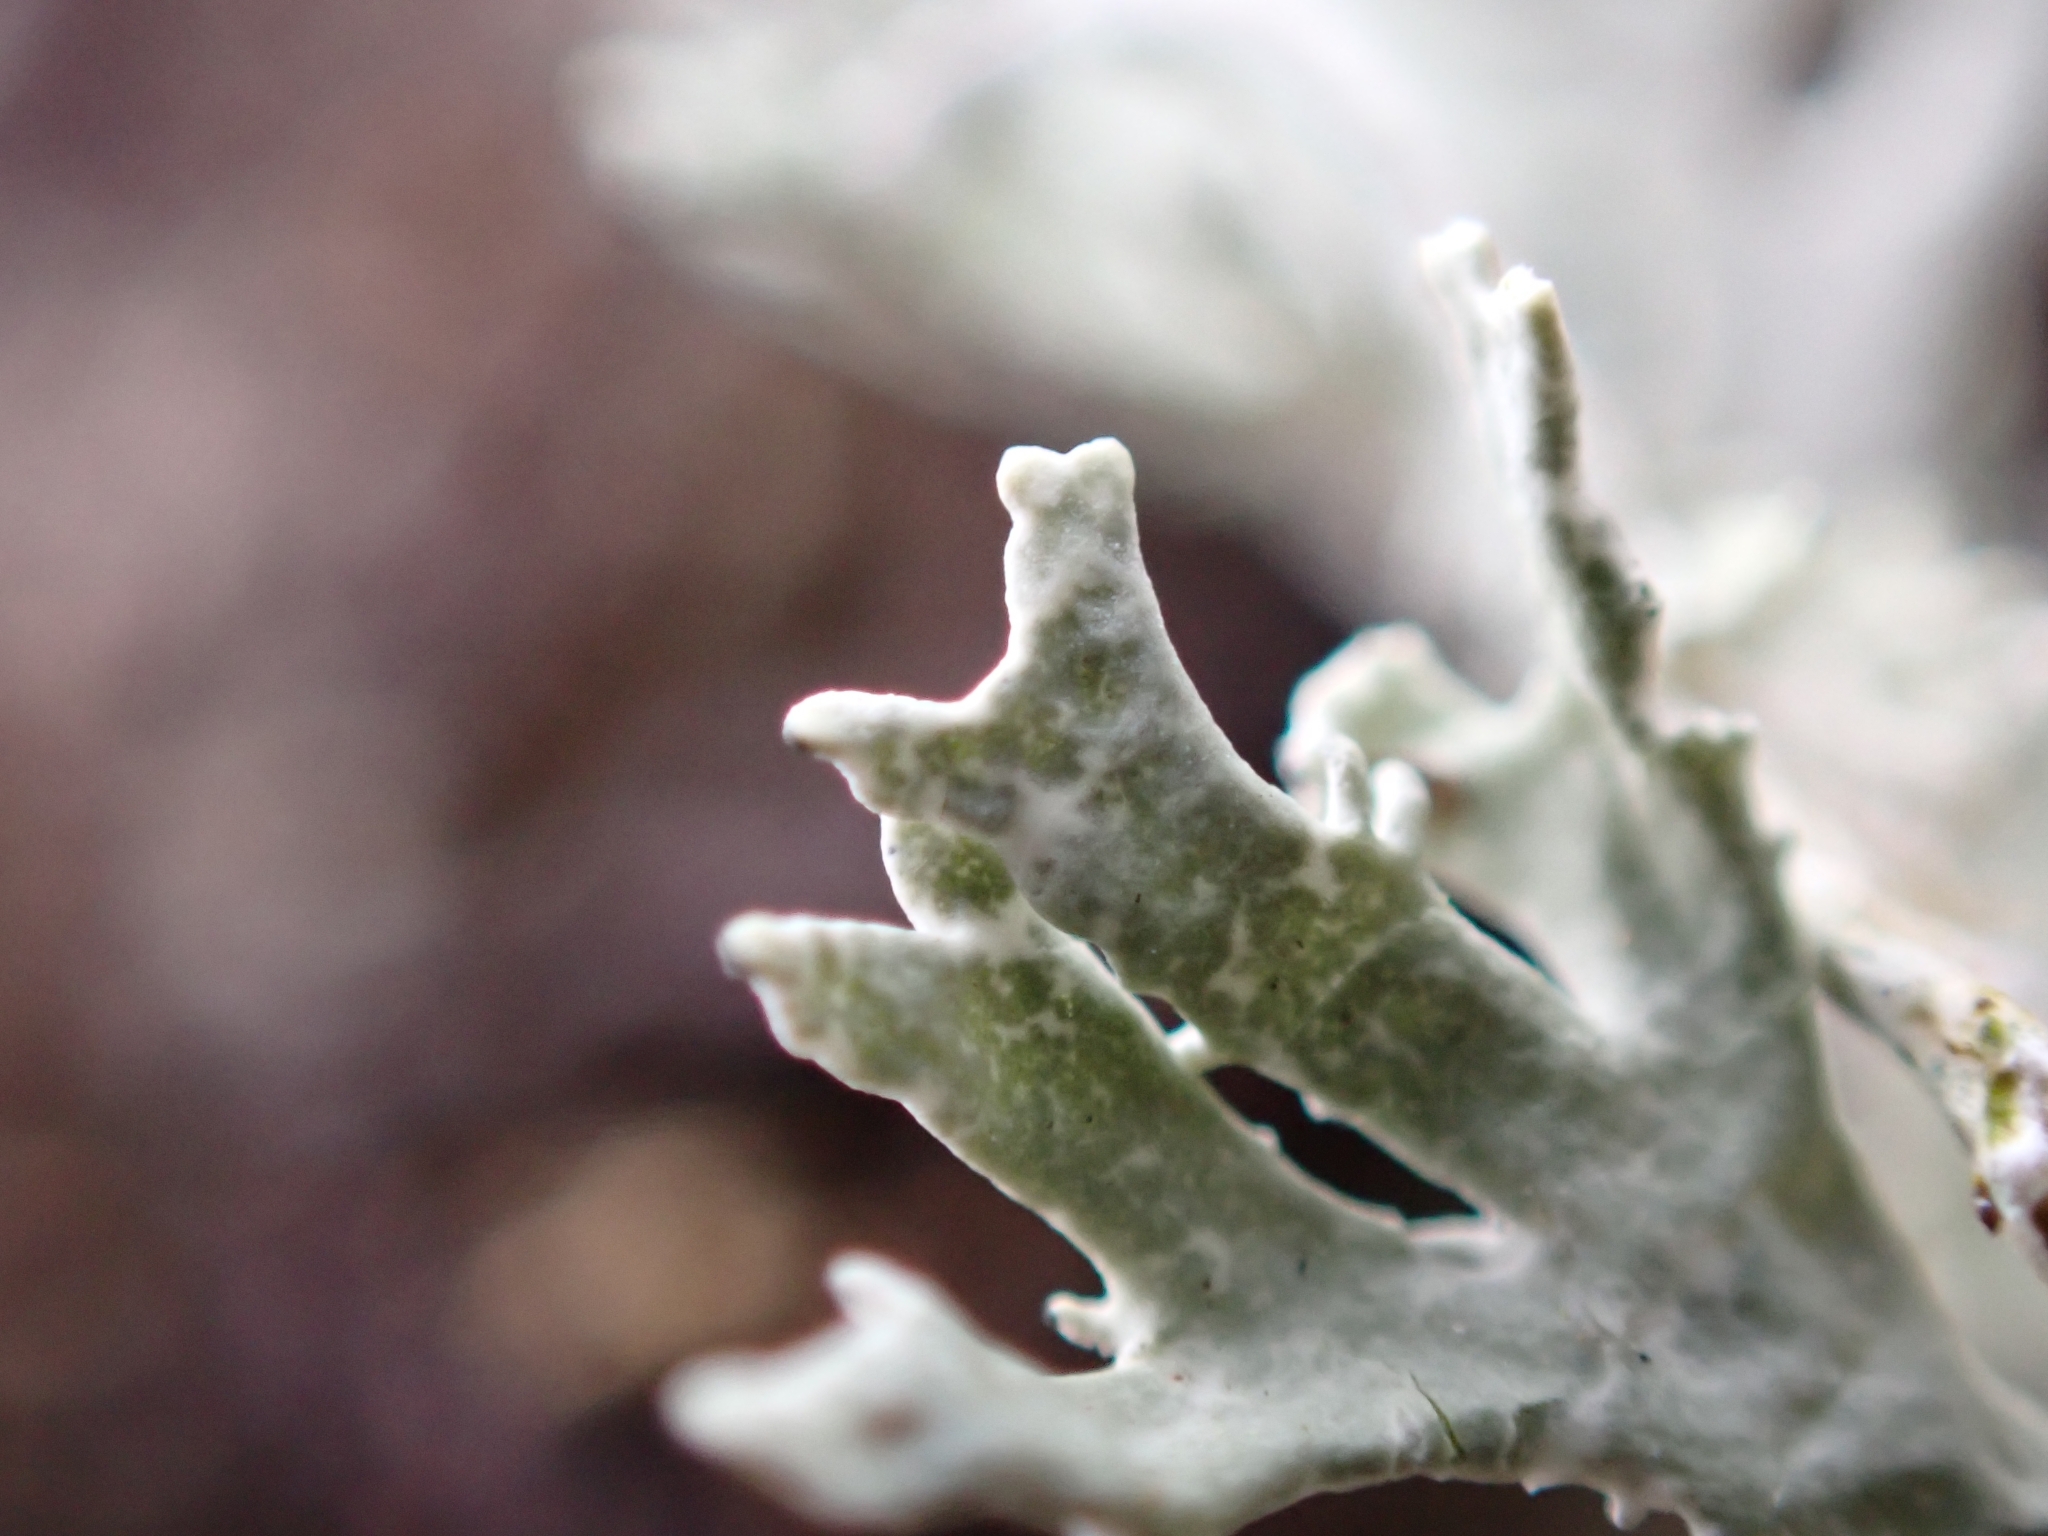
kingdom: Fungi
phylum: Ascomycota
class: Lecanoromycetes
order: Lecanorales
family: Parmeliaceae
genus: Evernia
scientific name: Evernia prunastri
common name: Oak moss
